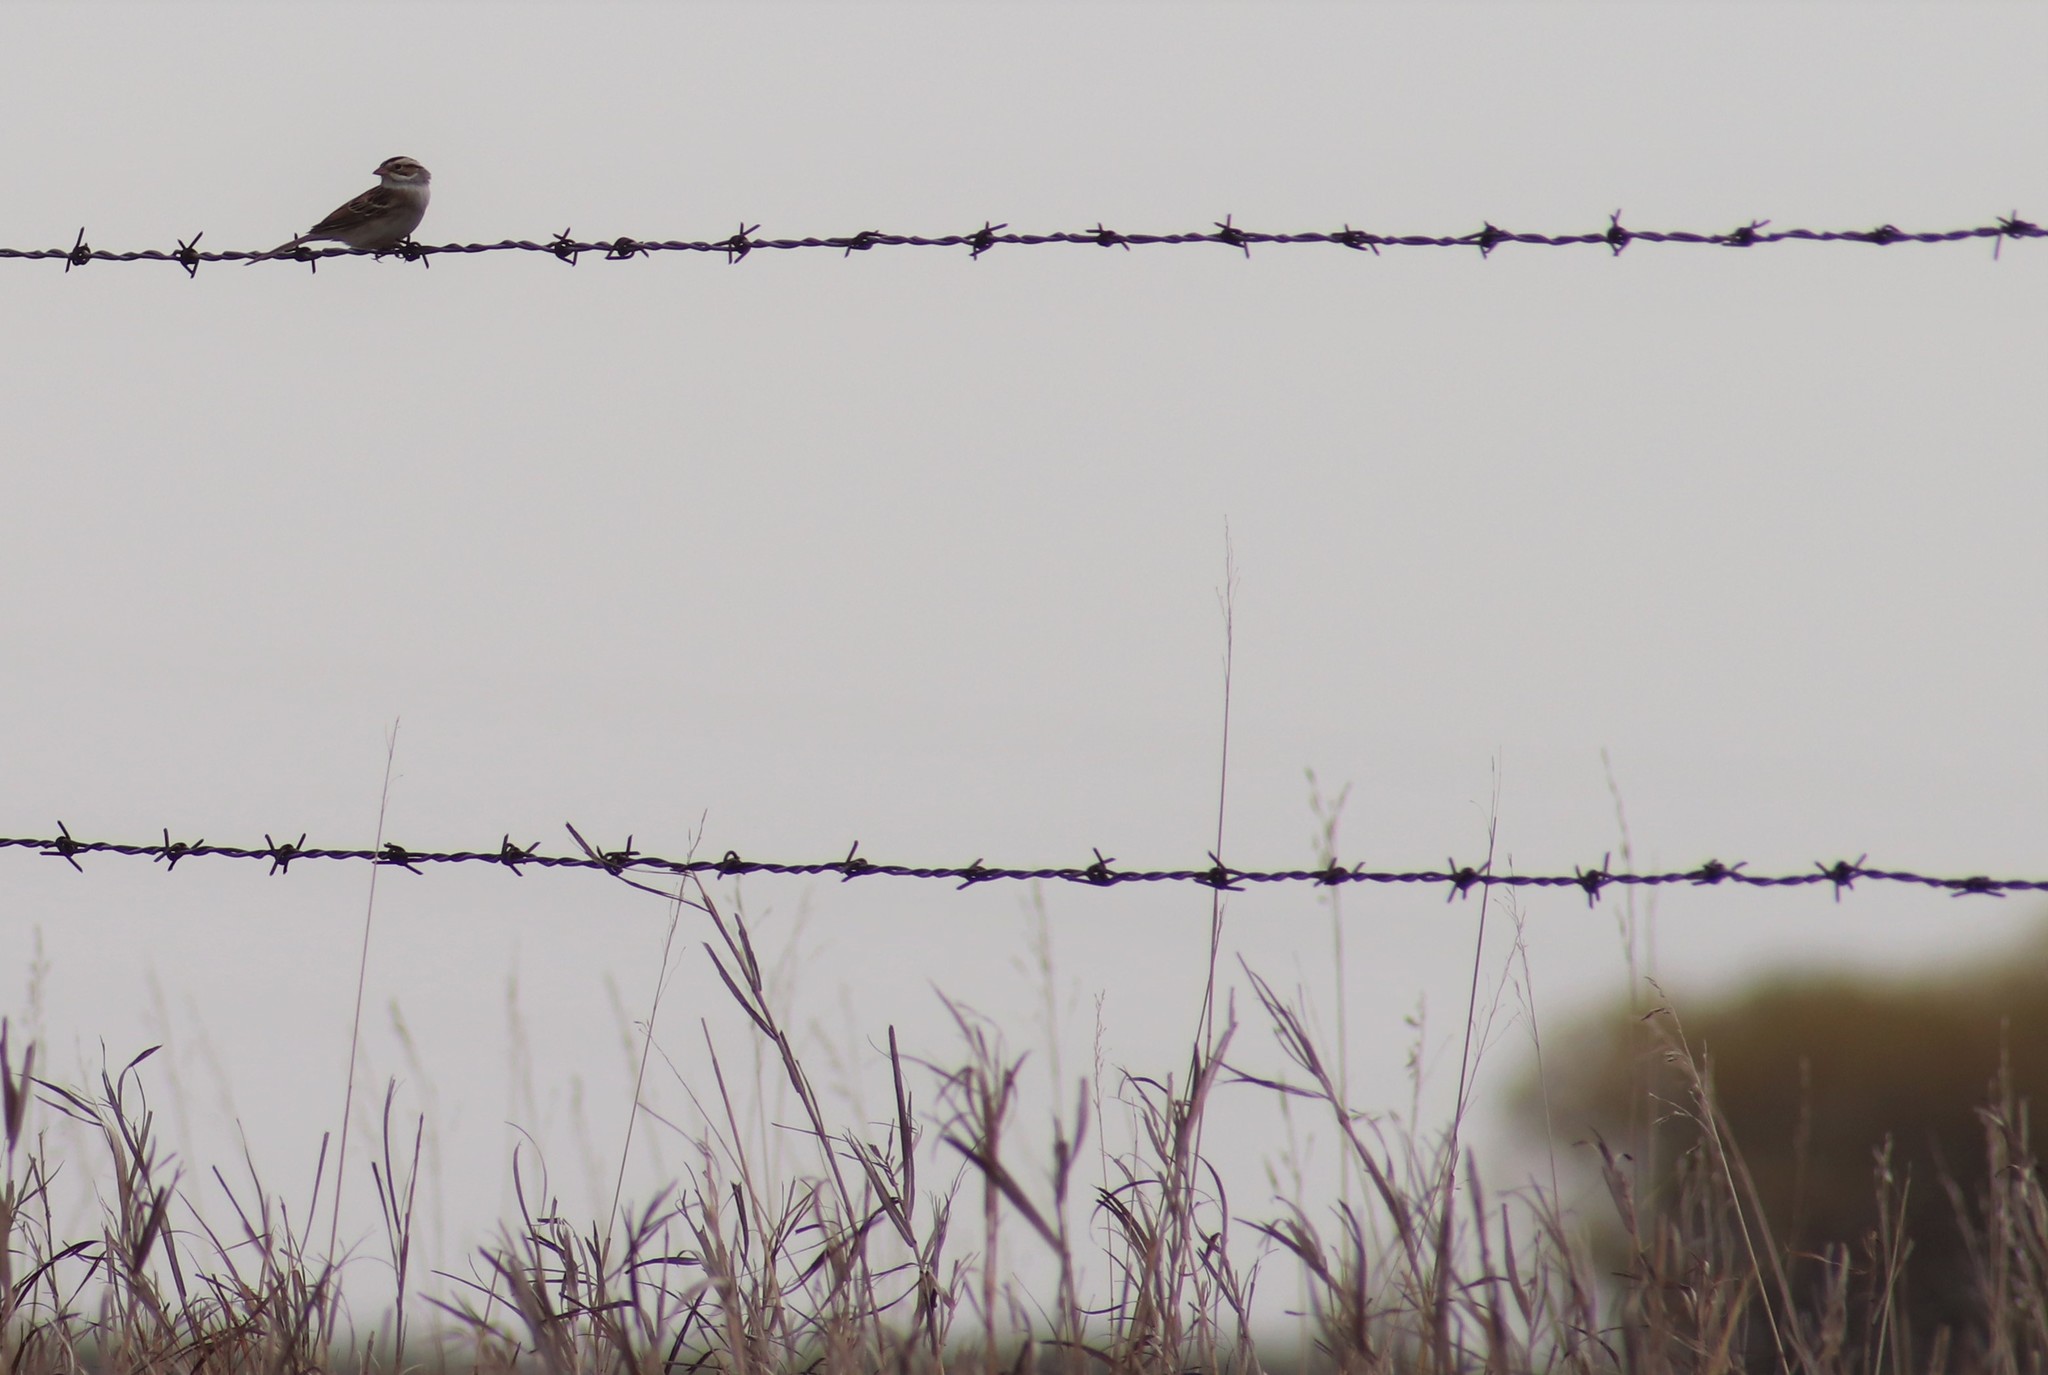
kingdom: Animalia
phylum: Chordata
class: Aves
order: Passeriformes
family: Passerellidae
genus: Spizella
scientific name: Spizella pallida
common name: Clay-colored sparrow
